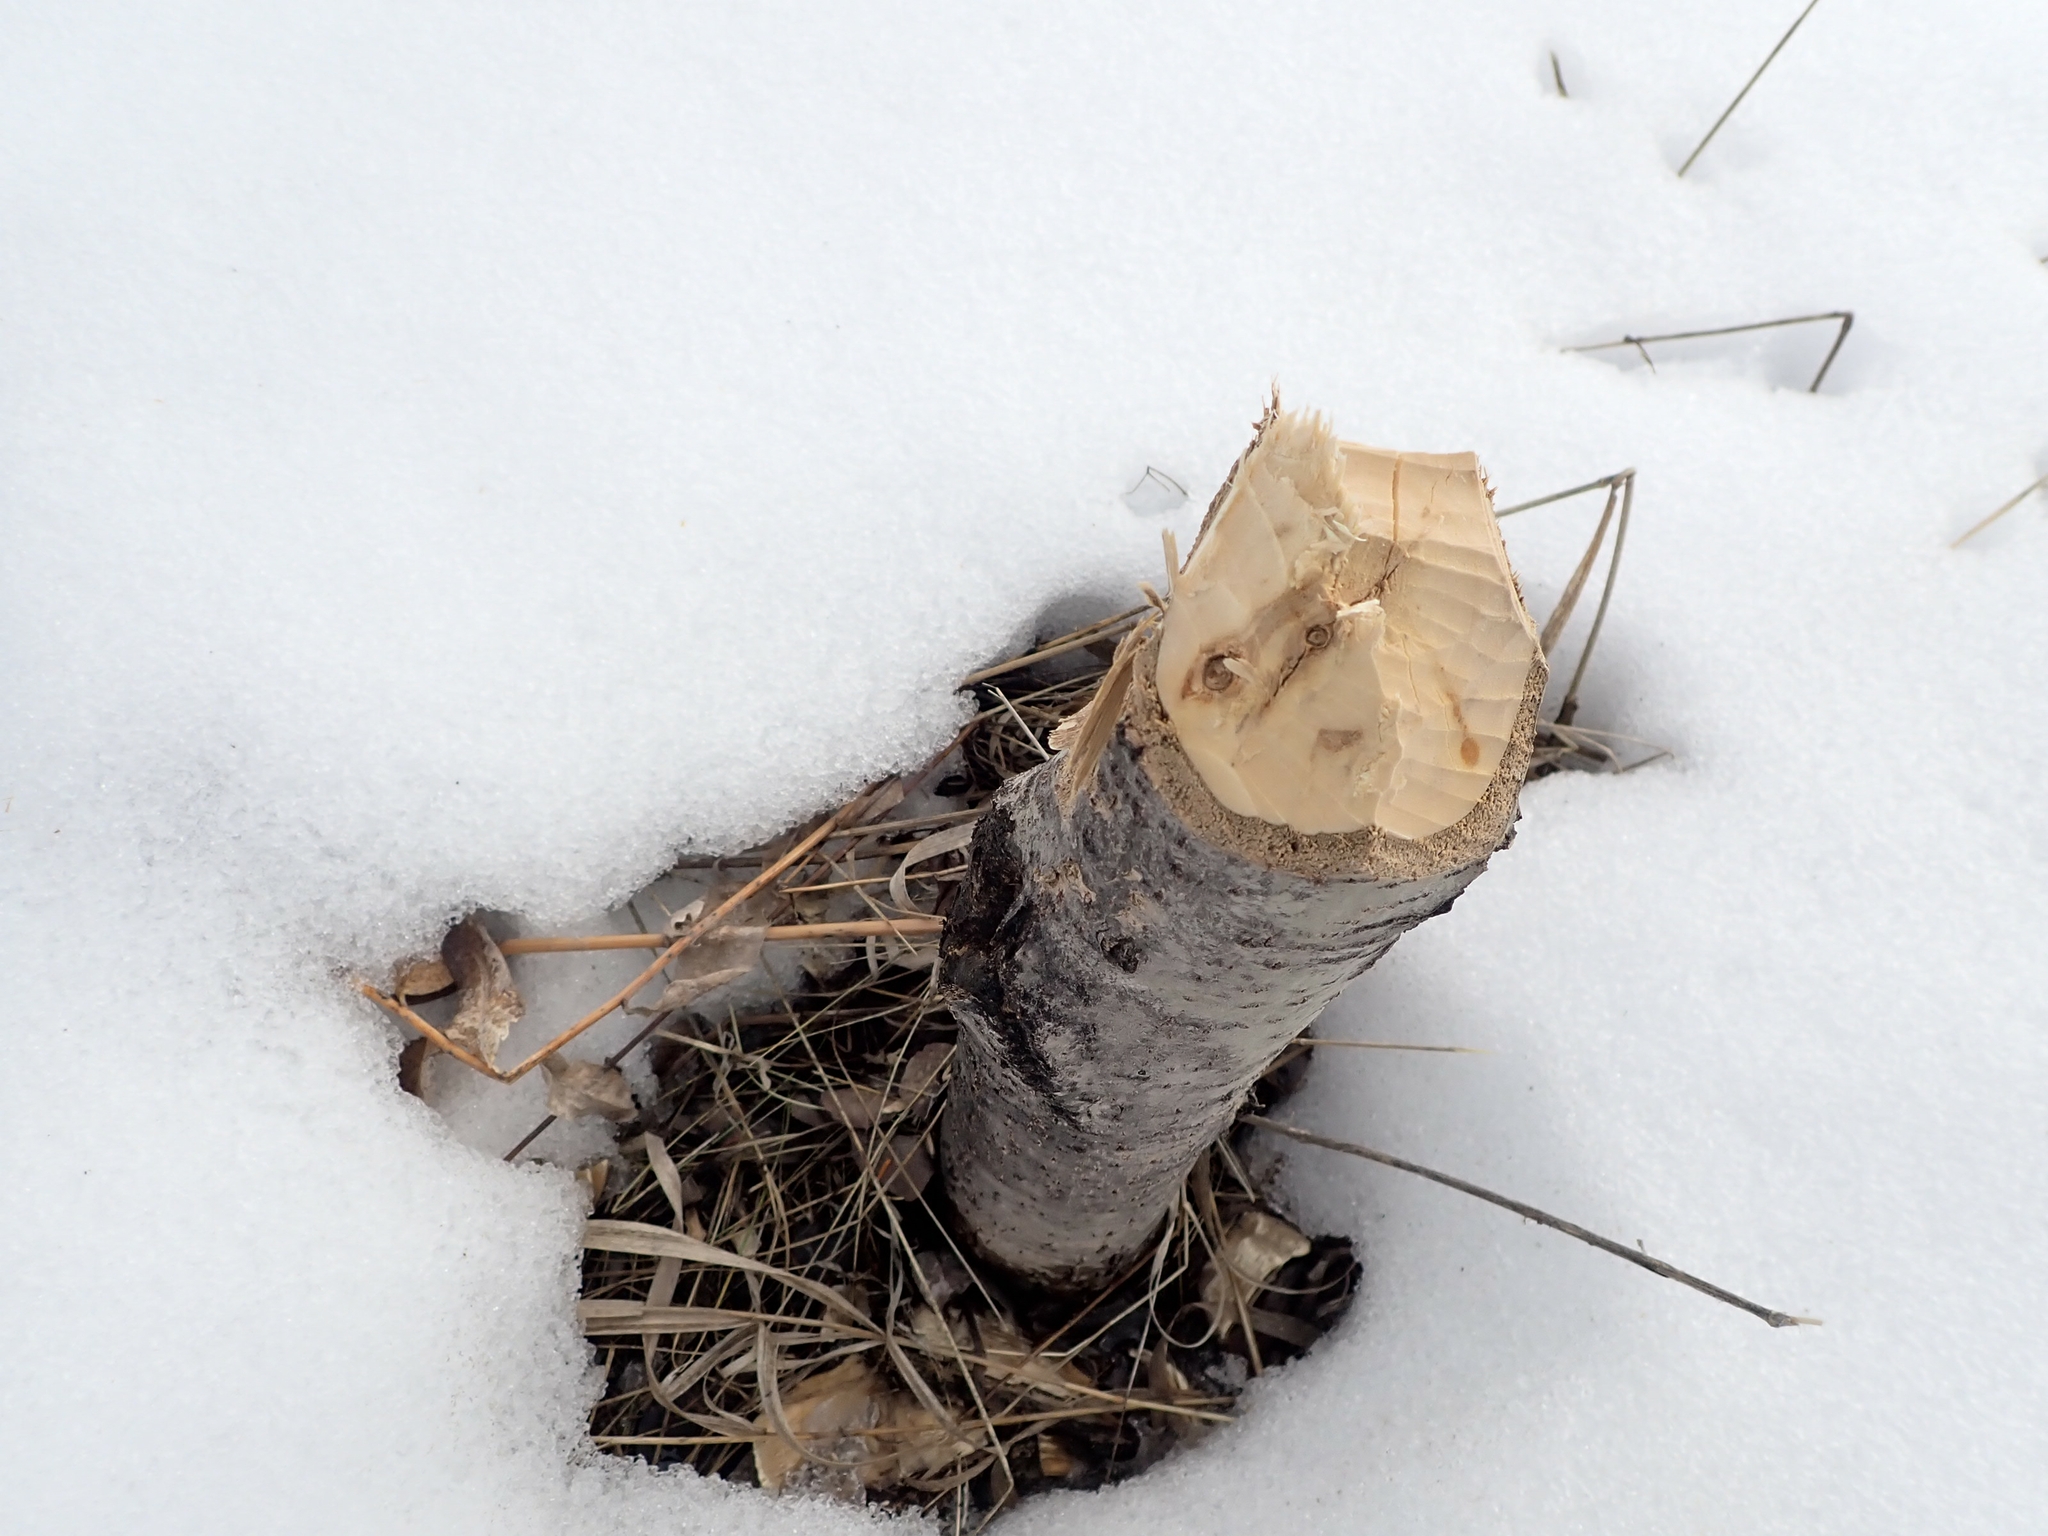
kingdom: Animalia
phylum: Chordata
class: Mammalia
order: Rodentia
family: Castoridae
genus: Castor
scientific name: Castor canadensis
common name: American beaver
